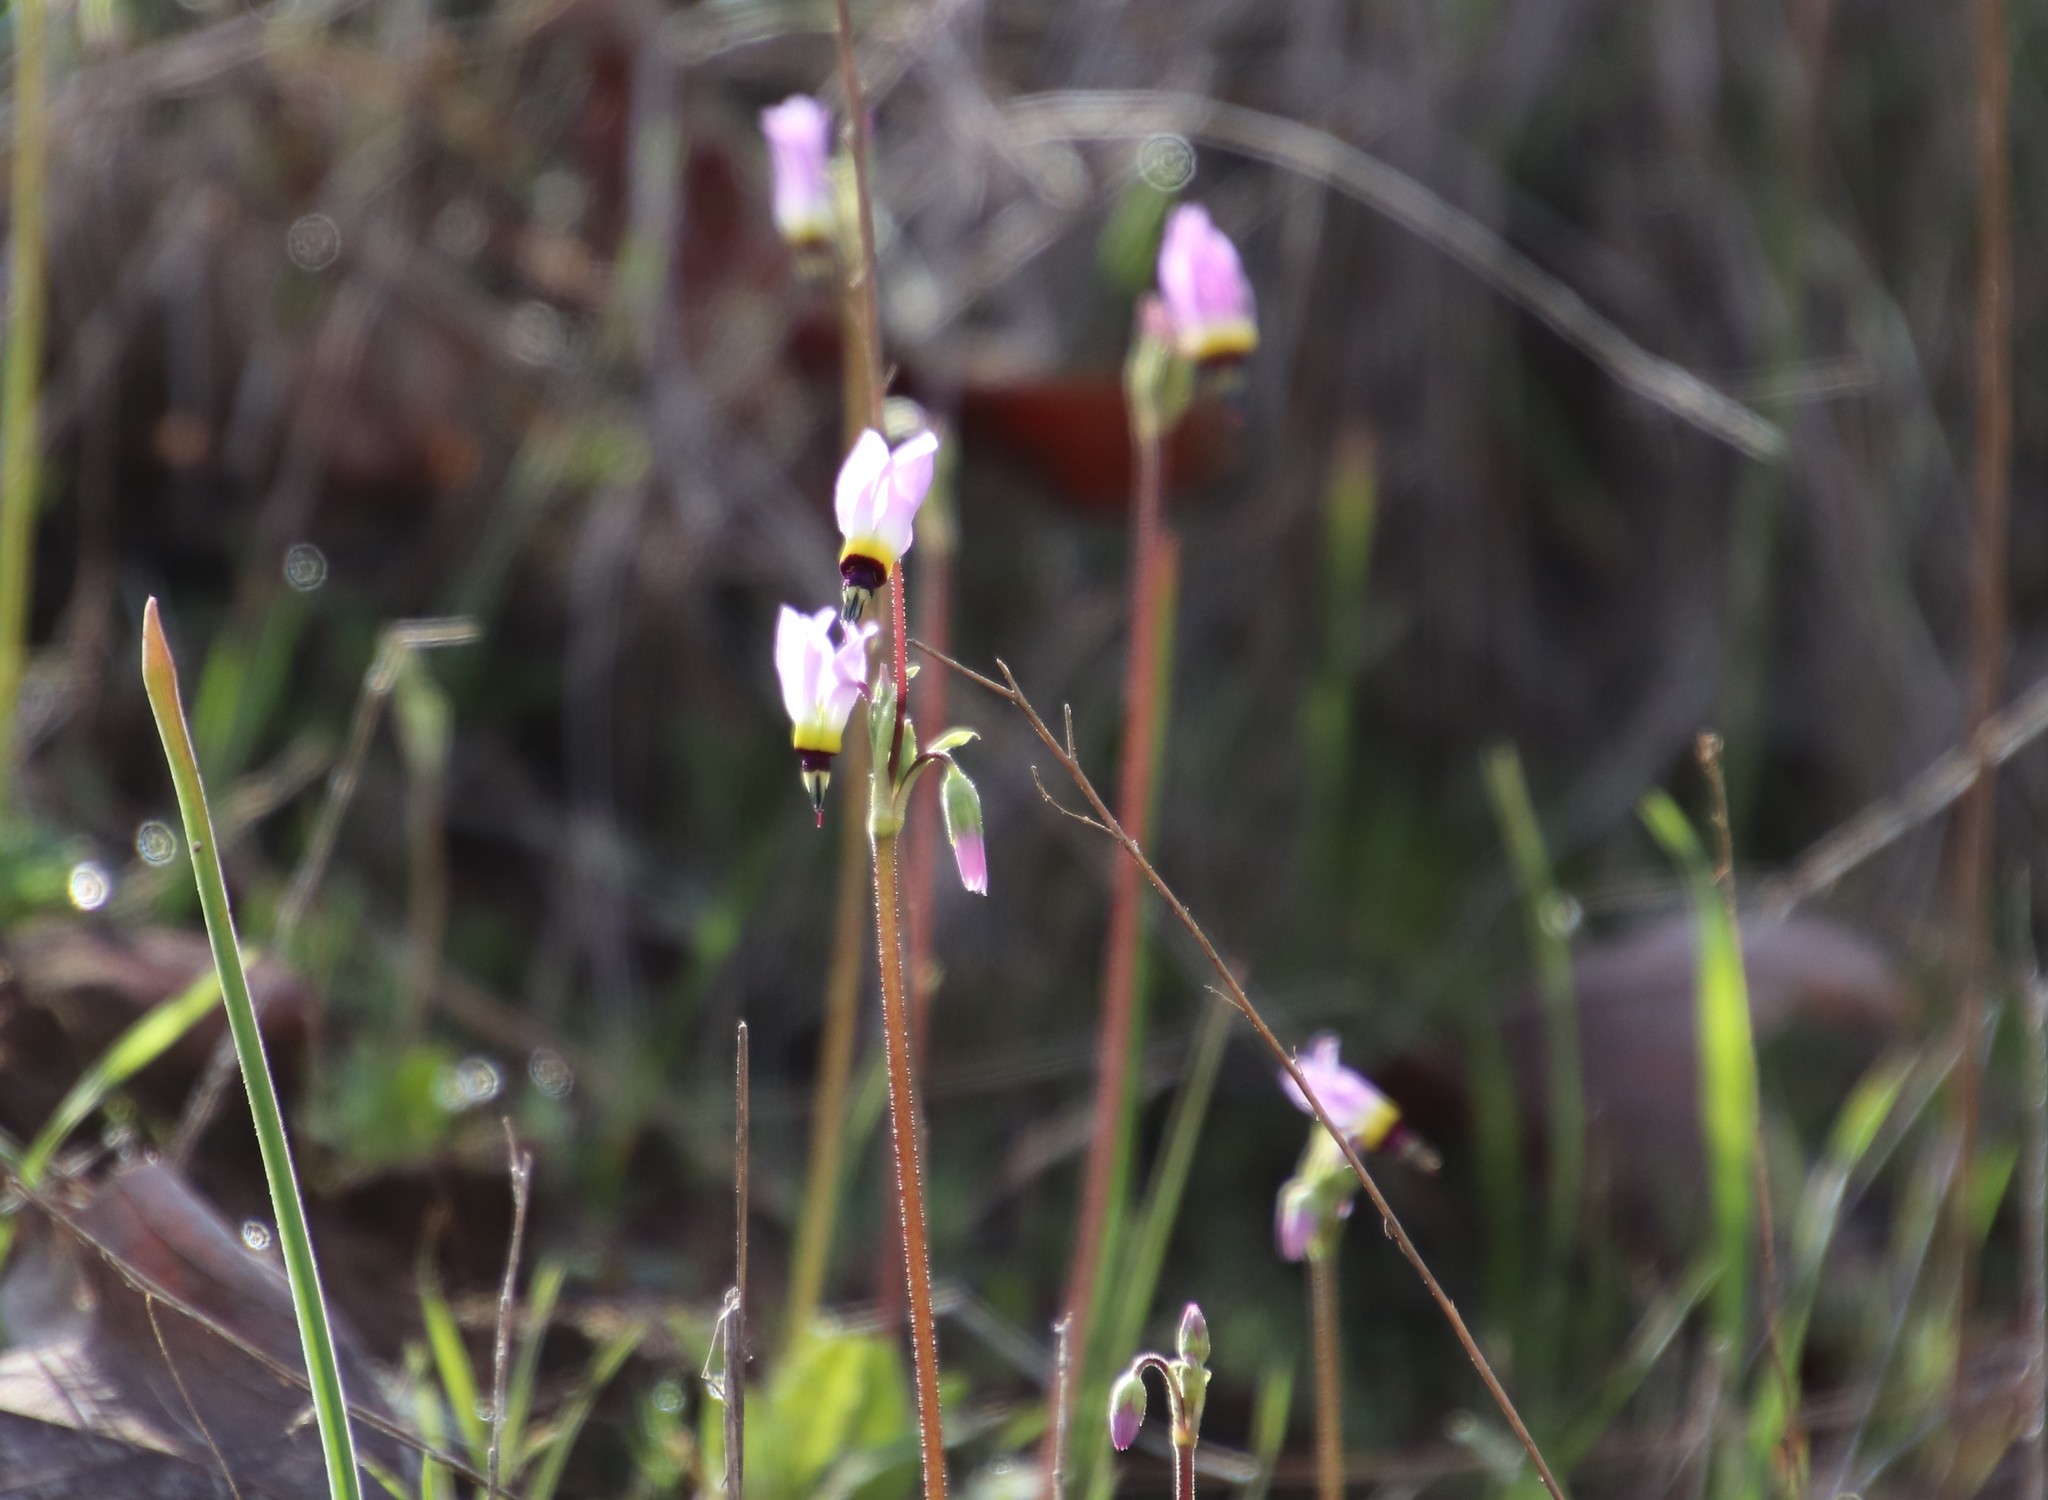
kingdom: Plantae
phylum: Tracheophyta
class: Magnoliopsida
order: Ericales
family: Primulaceae
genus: Dodecatheon
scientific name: Dodecatheon clevelandii
